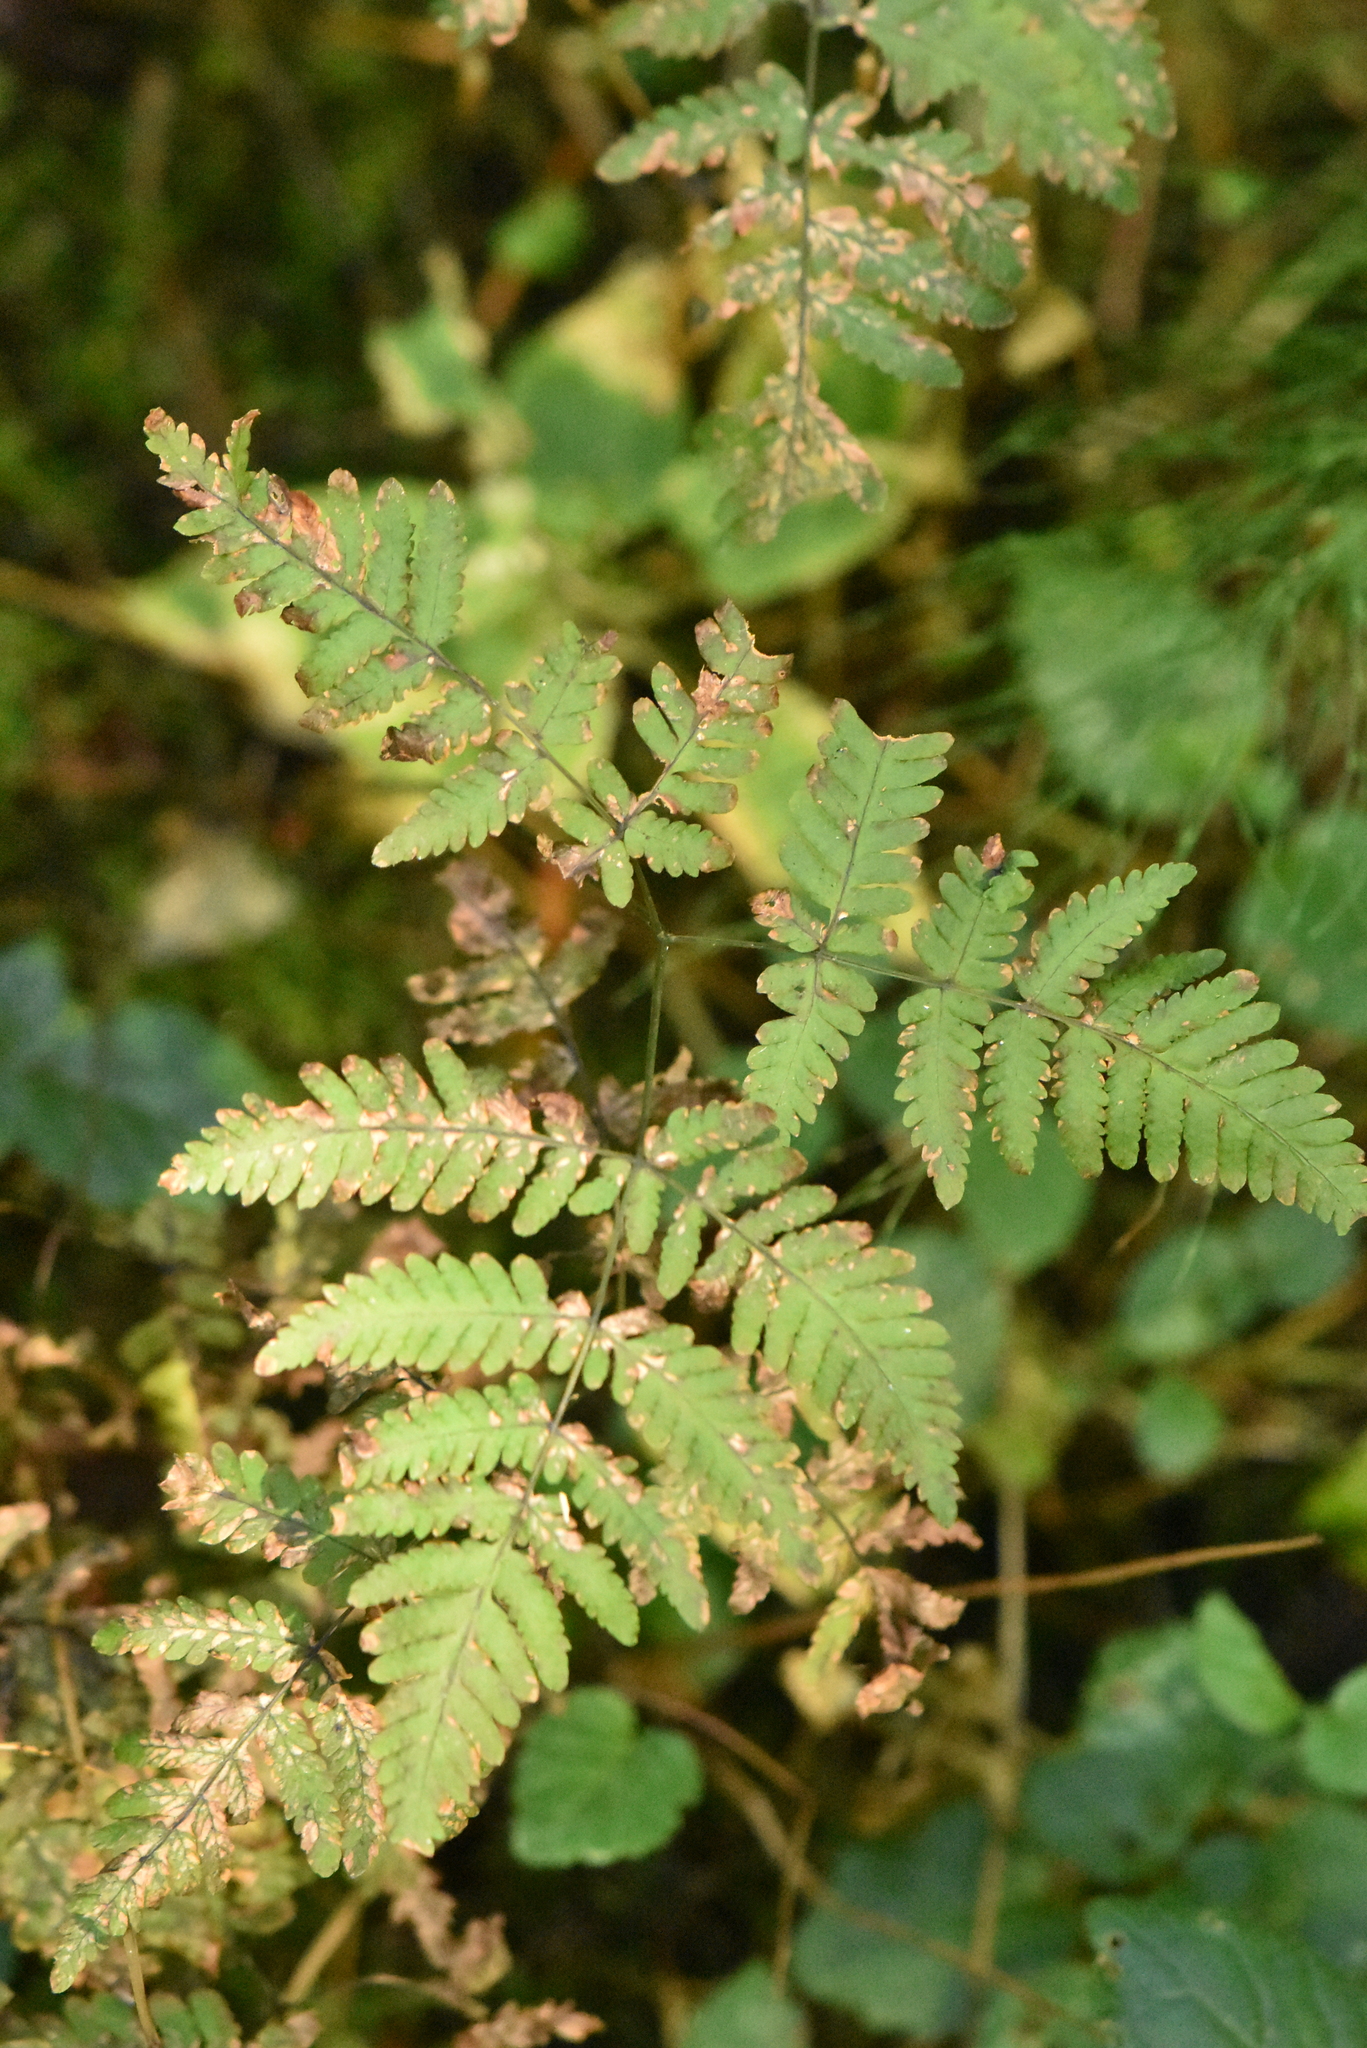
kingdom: Plantae
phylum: Tracheophyta
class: Polypodiopsida
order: Polypodiales
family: Cystopteridaceae
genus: Gymnocarpium
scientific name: Gymnocarpium dryopteris
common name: Oak fern
